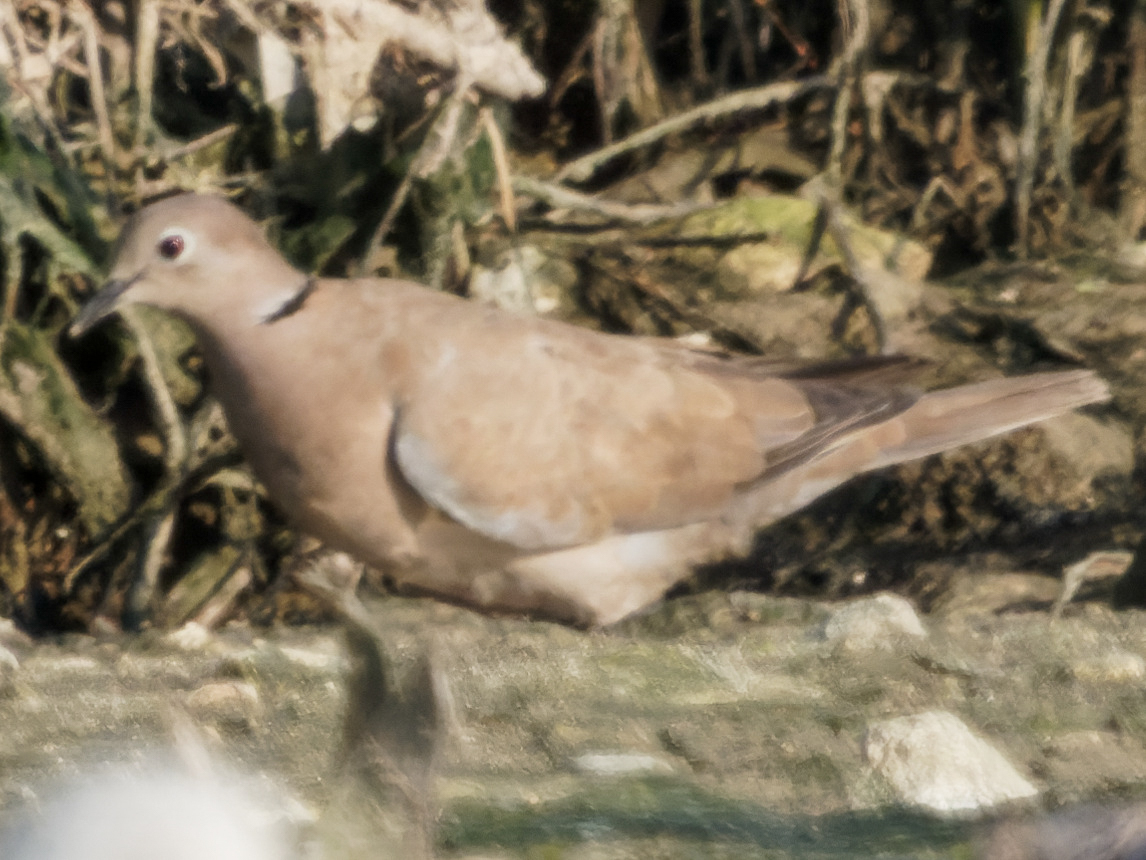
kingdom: Animalia
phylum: Chordata
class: Aves
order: Columbiformes
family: Columbidae
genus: Streptopelia
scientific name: Streptopelia decaocto
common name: Eurasian collared dove
